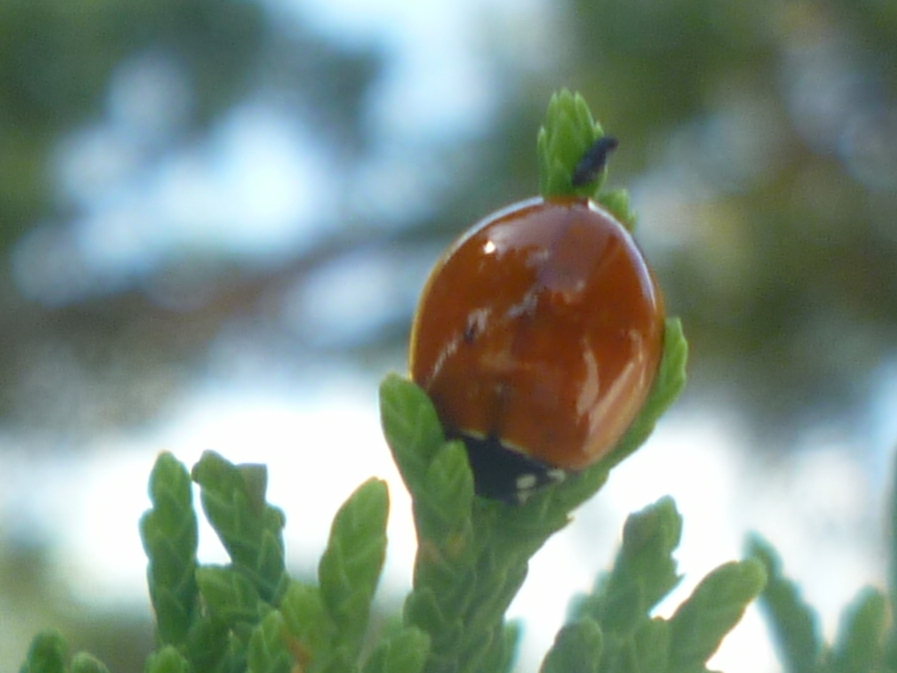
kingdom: Animalia
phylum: Arthropoda
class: Insecta
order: Coleoptera
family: Coccinellidae
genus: Cycloneda
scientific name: Cycloneda sanguinea
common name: Ladybird beetle
